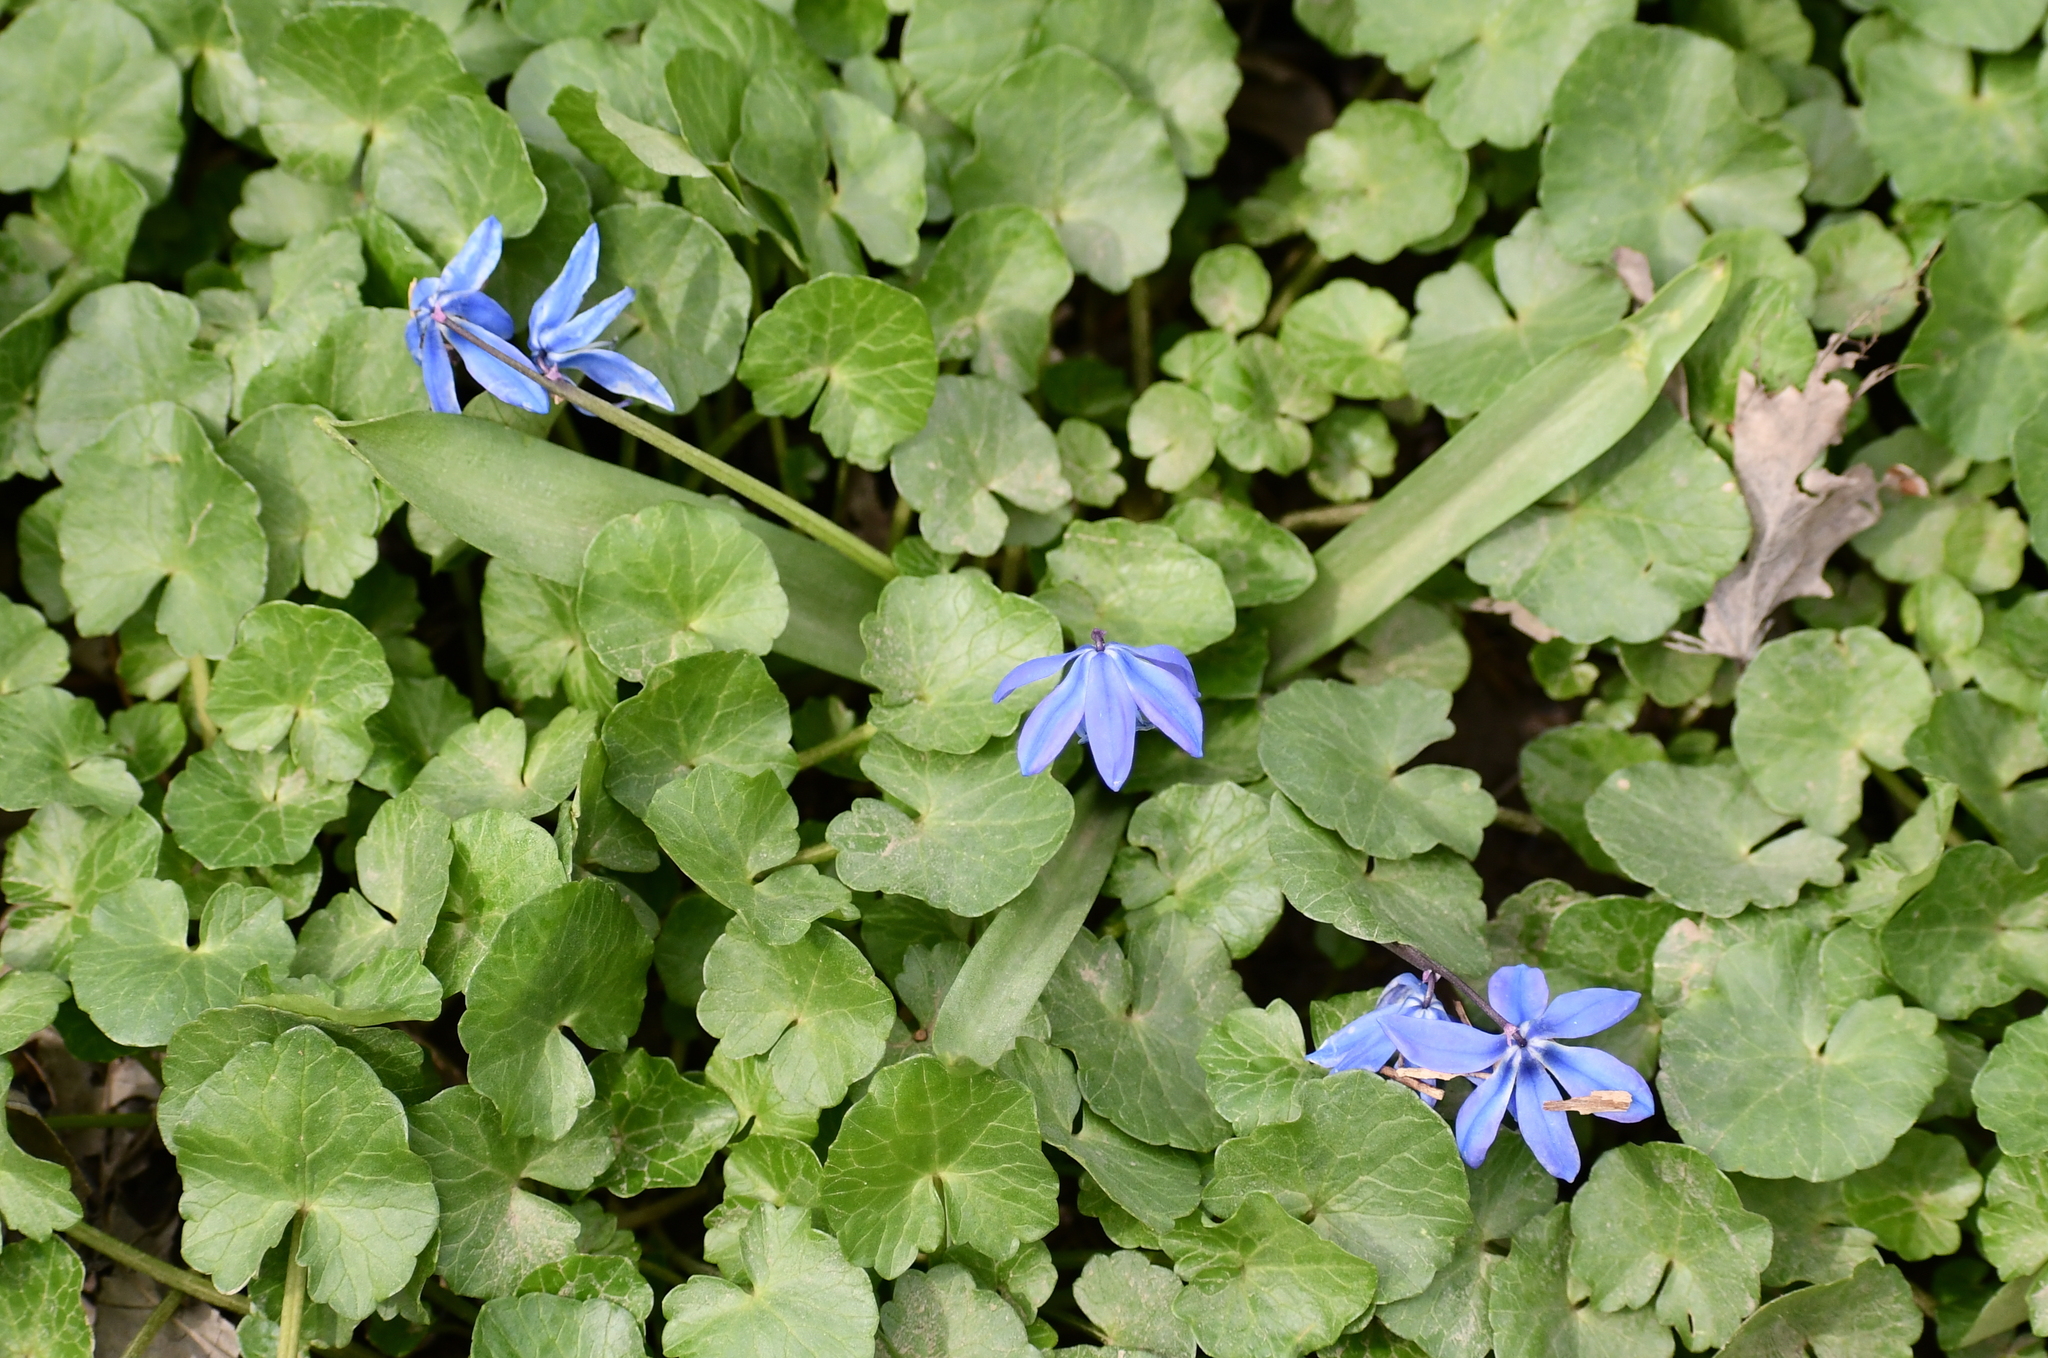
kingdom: Plantae
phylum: Tracheophyta
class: Liliopsida
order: Asparagales
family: Asparagaceae
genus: Scilla
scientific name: Scilla siberica
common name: Siberian squill
